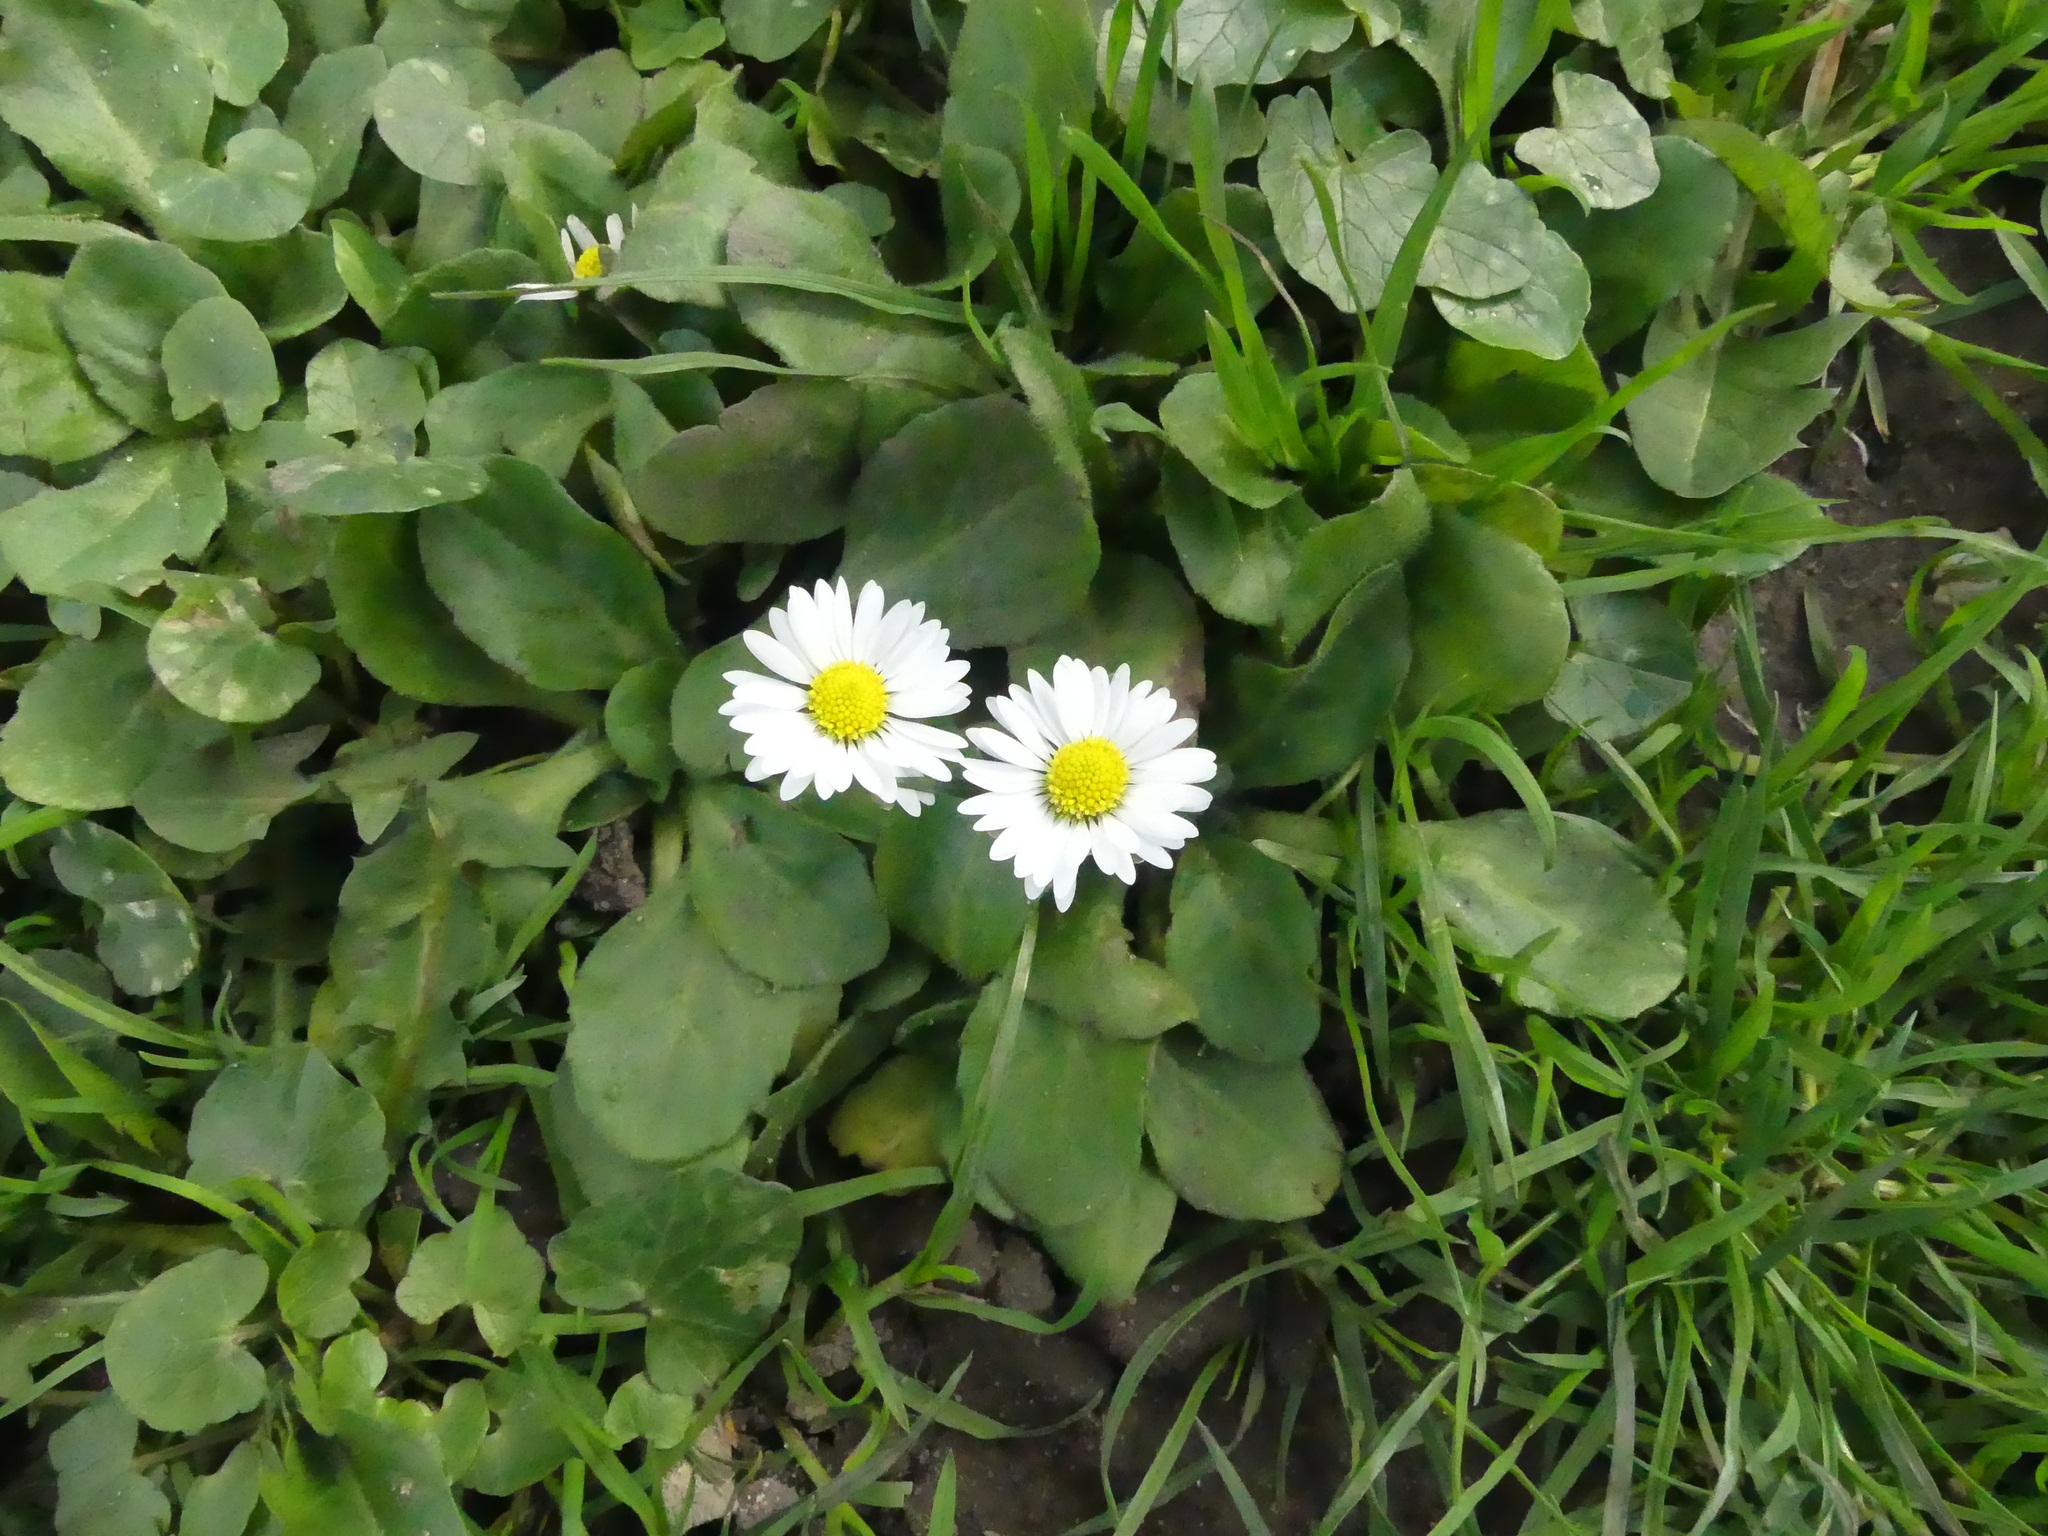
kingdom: Plantae
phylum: Tracheophyta
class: Magnoliopsida
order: Asterales
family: Asteraceae
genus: Bellis
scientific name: Bellis perennis
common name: Lawndaisy
